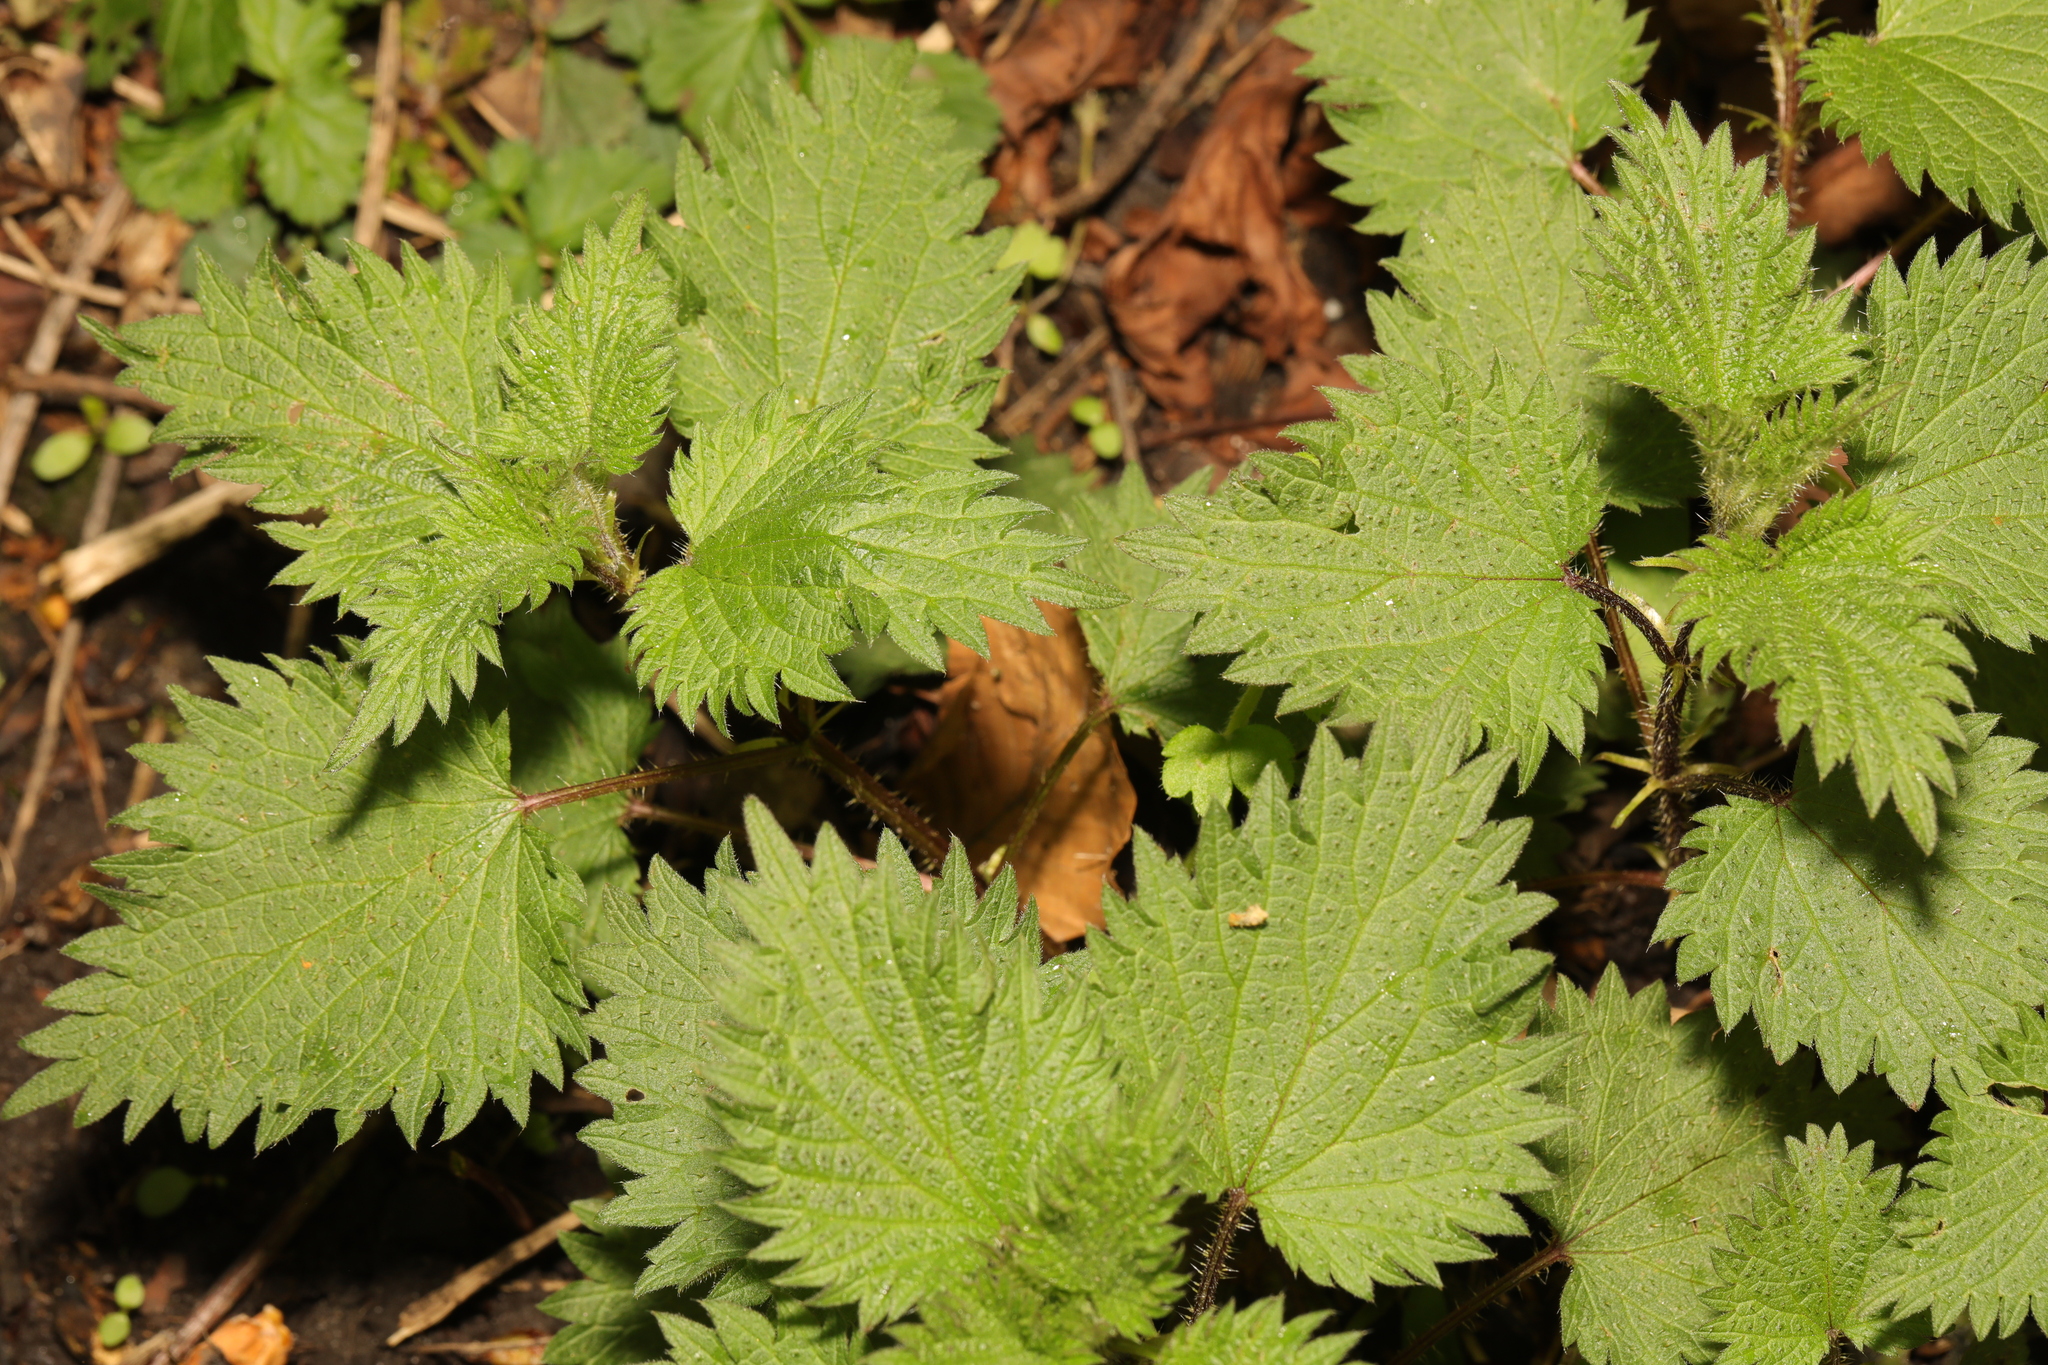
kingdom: Plantae
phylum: Tracheophyta
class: Magnoliopsida
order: Rosales
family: Urticaceae
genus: Urtica
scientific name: Urtica dioica
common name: Common nettle
